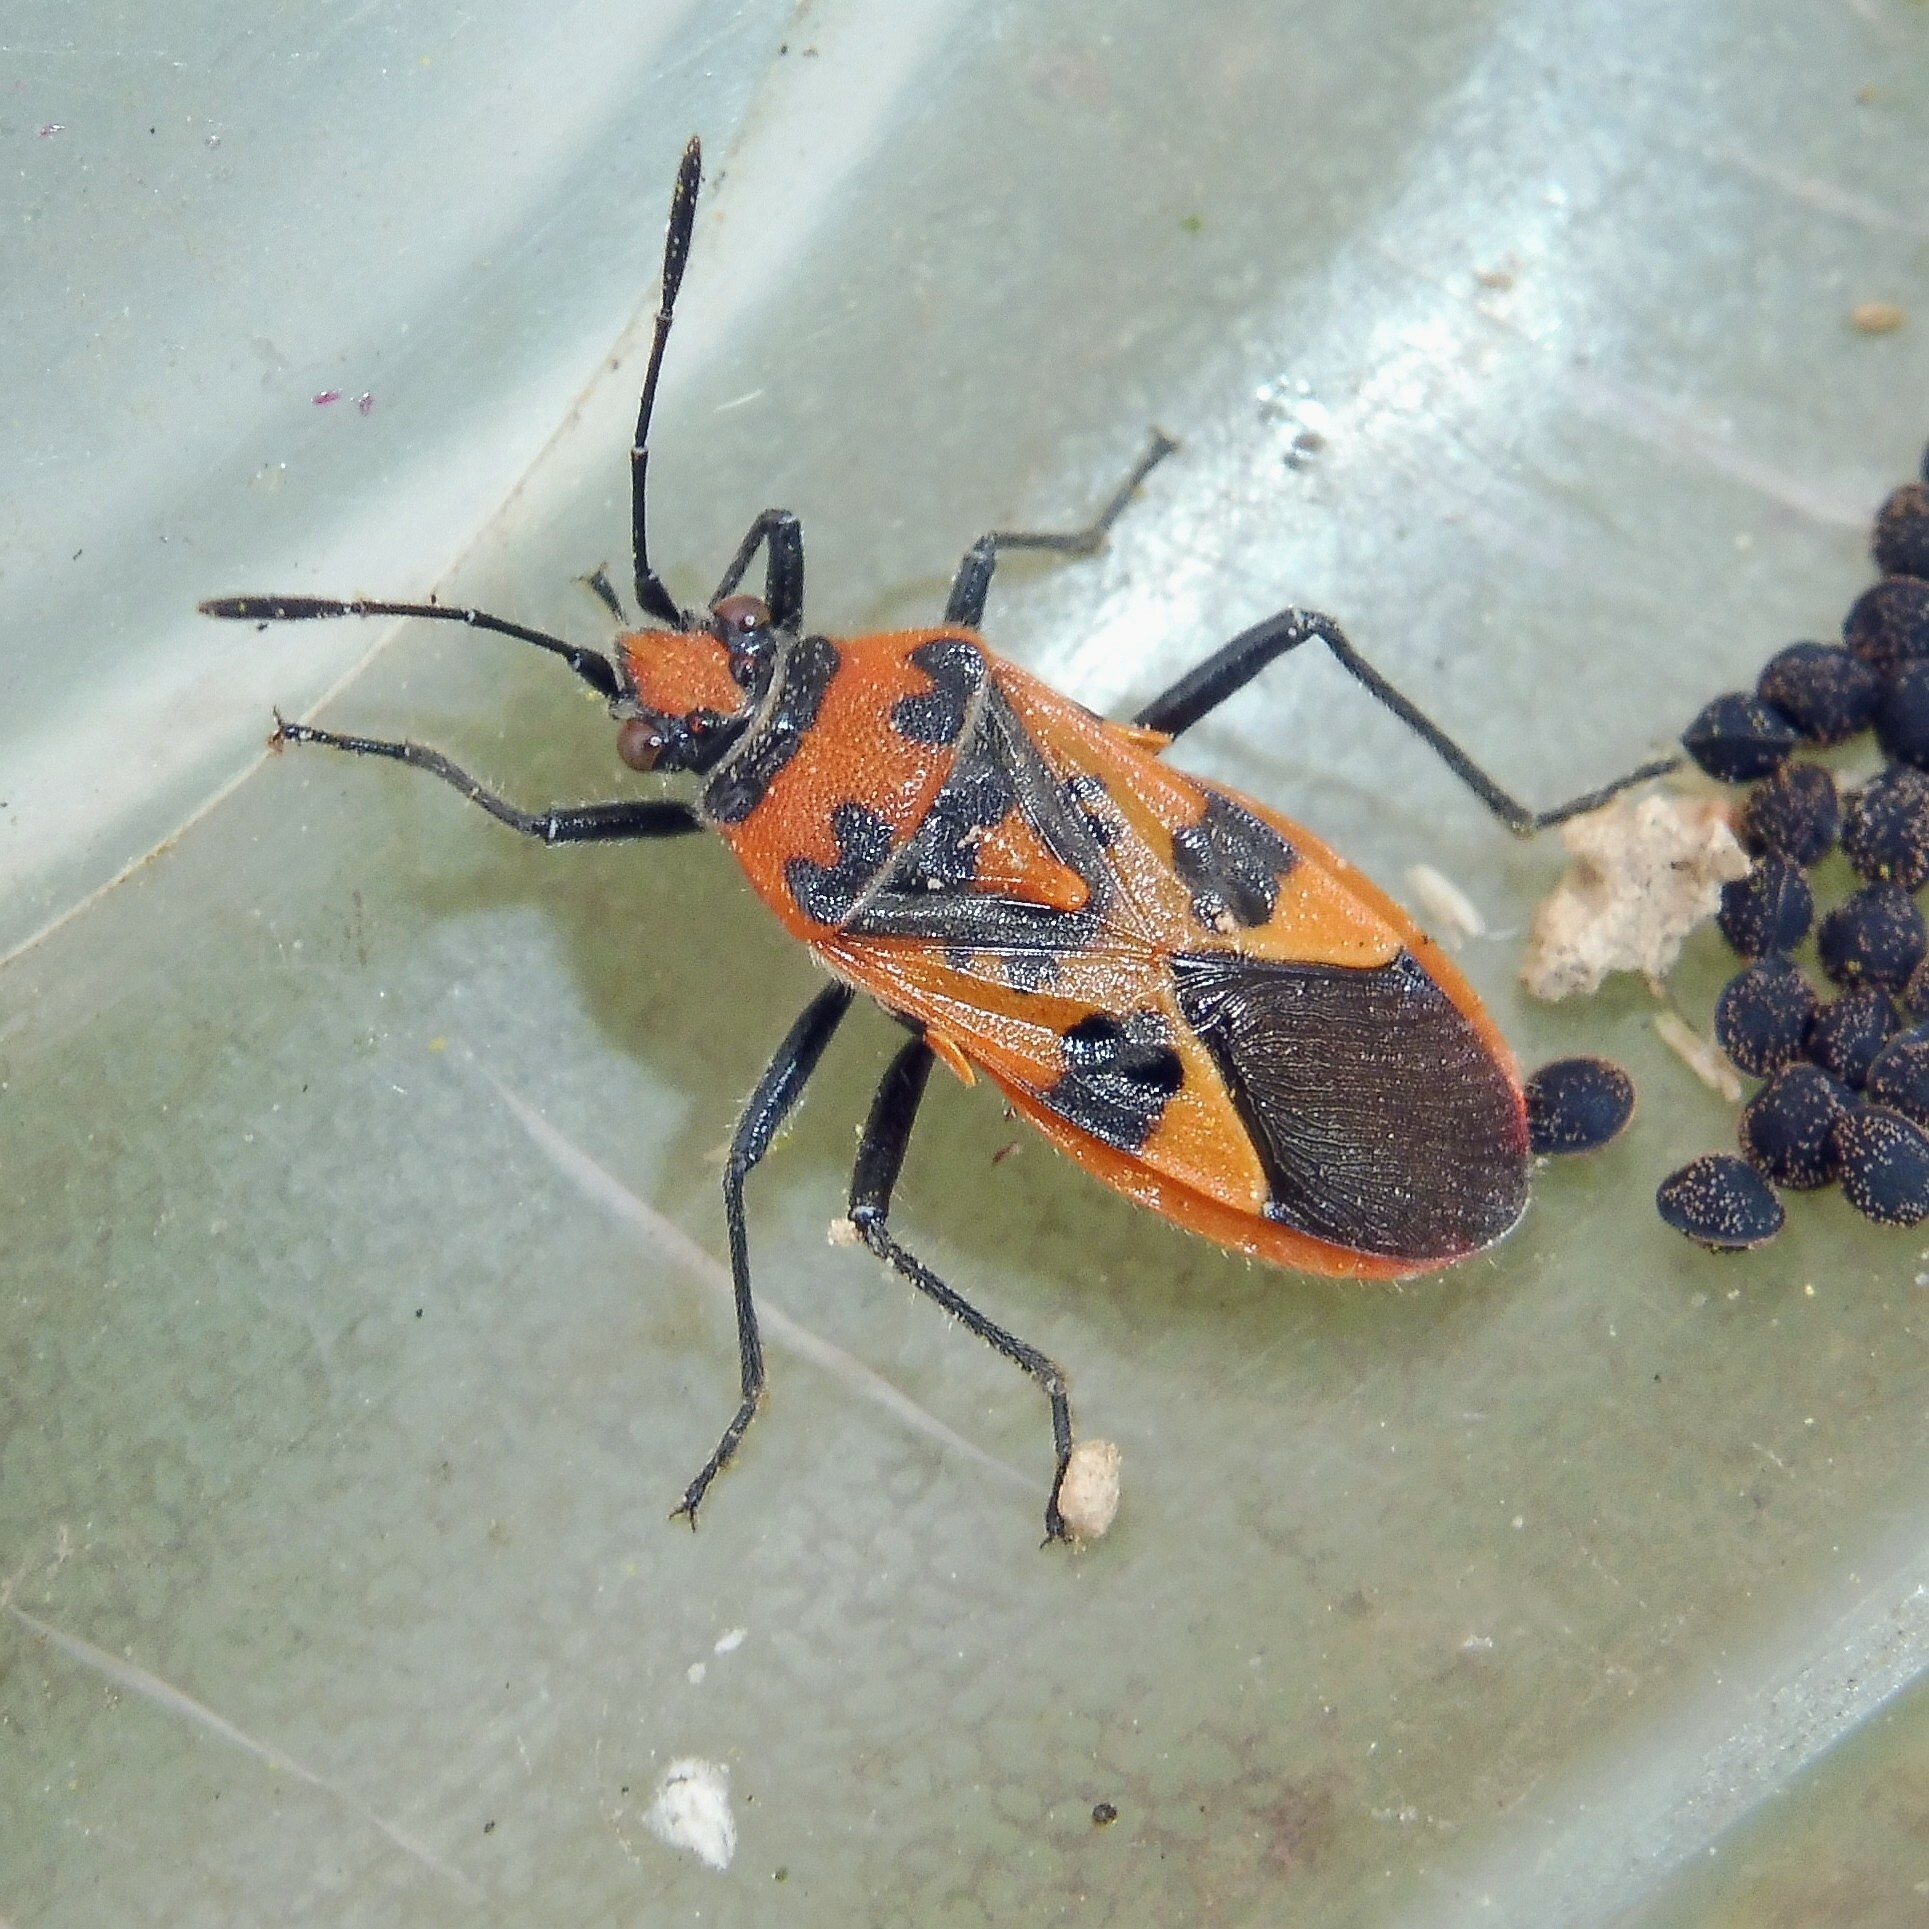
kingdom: Animalia
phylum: Arthropoda
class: Insecta
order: Hemiptera
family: Rhopalidae
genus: Corizus
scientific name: Corizus hyoscyami
